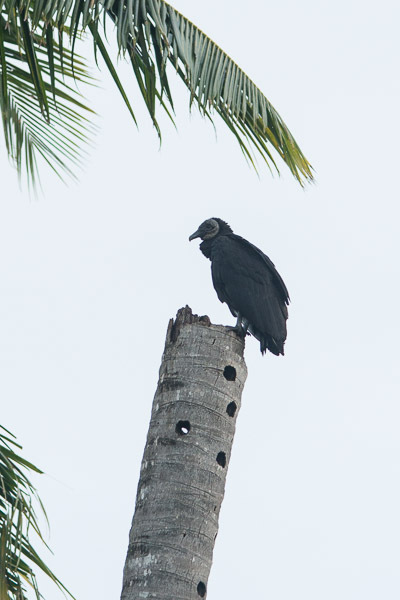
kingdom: Animalia
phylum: Chordata
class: Aves
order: Accipitriformes
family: Cathartidae
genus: Coragyps
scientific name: Coragyps atratus
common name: Black vulture
